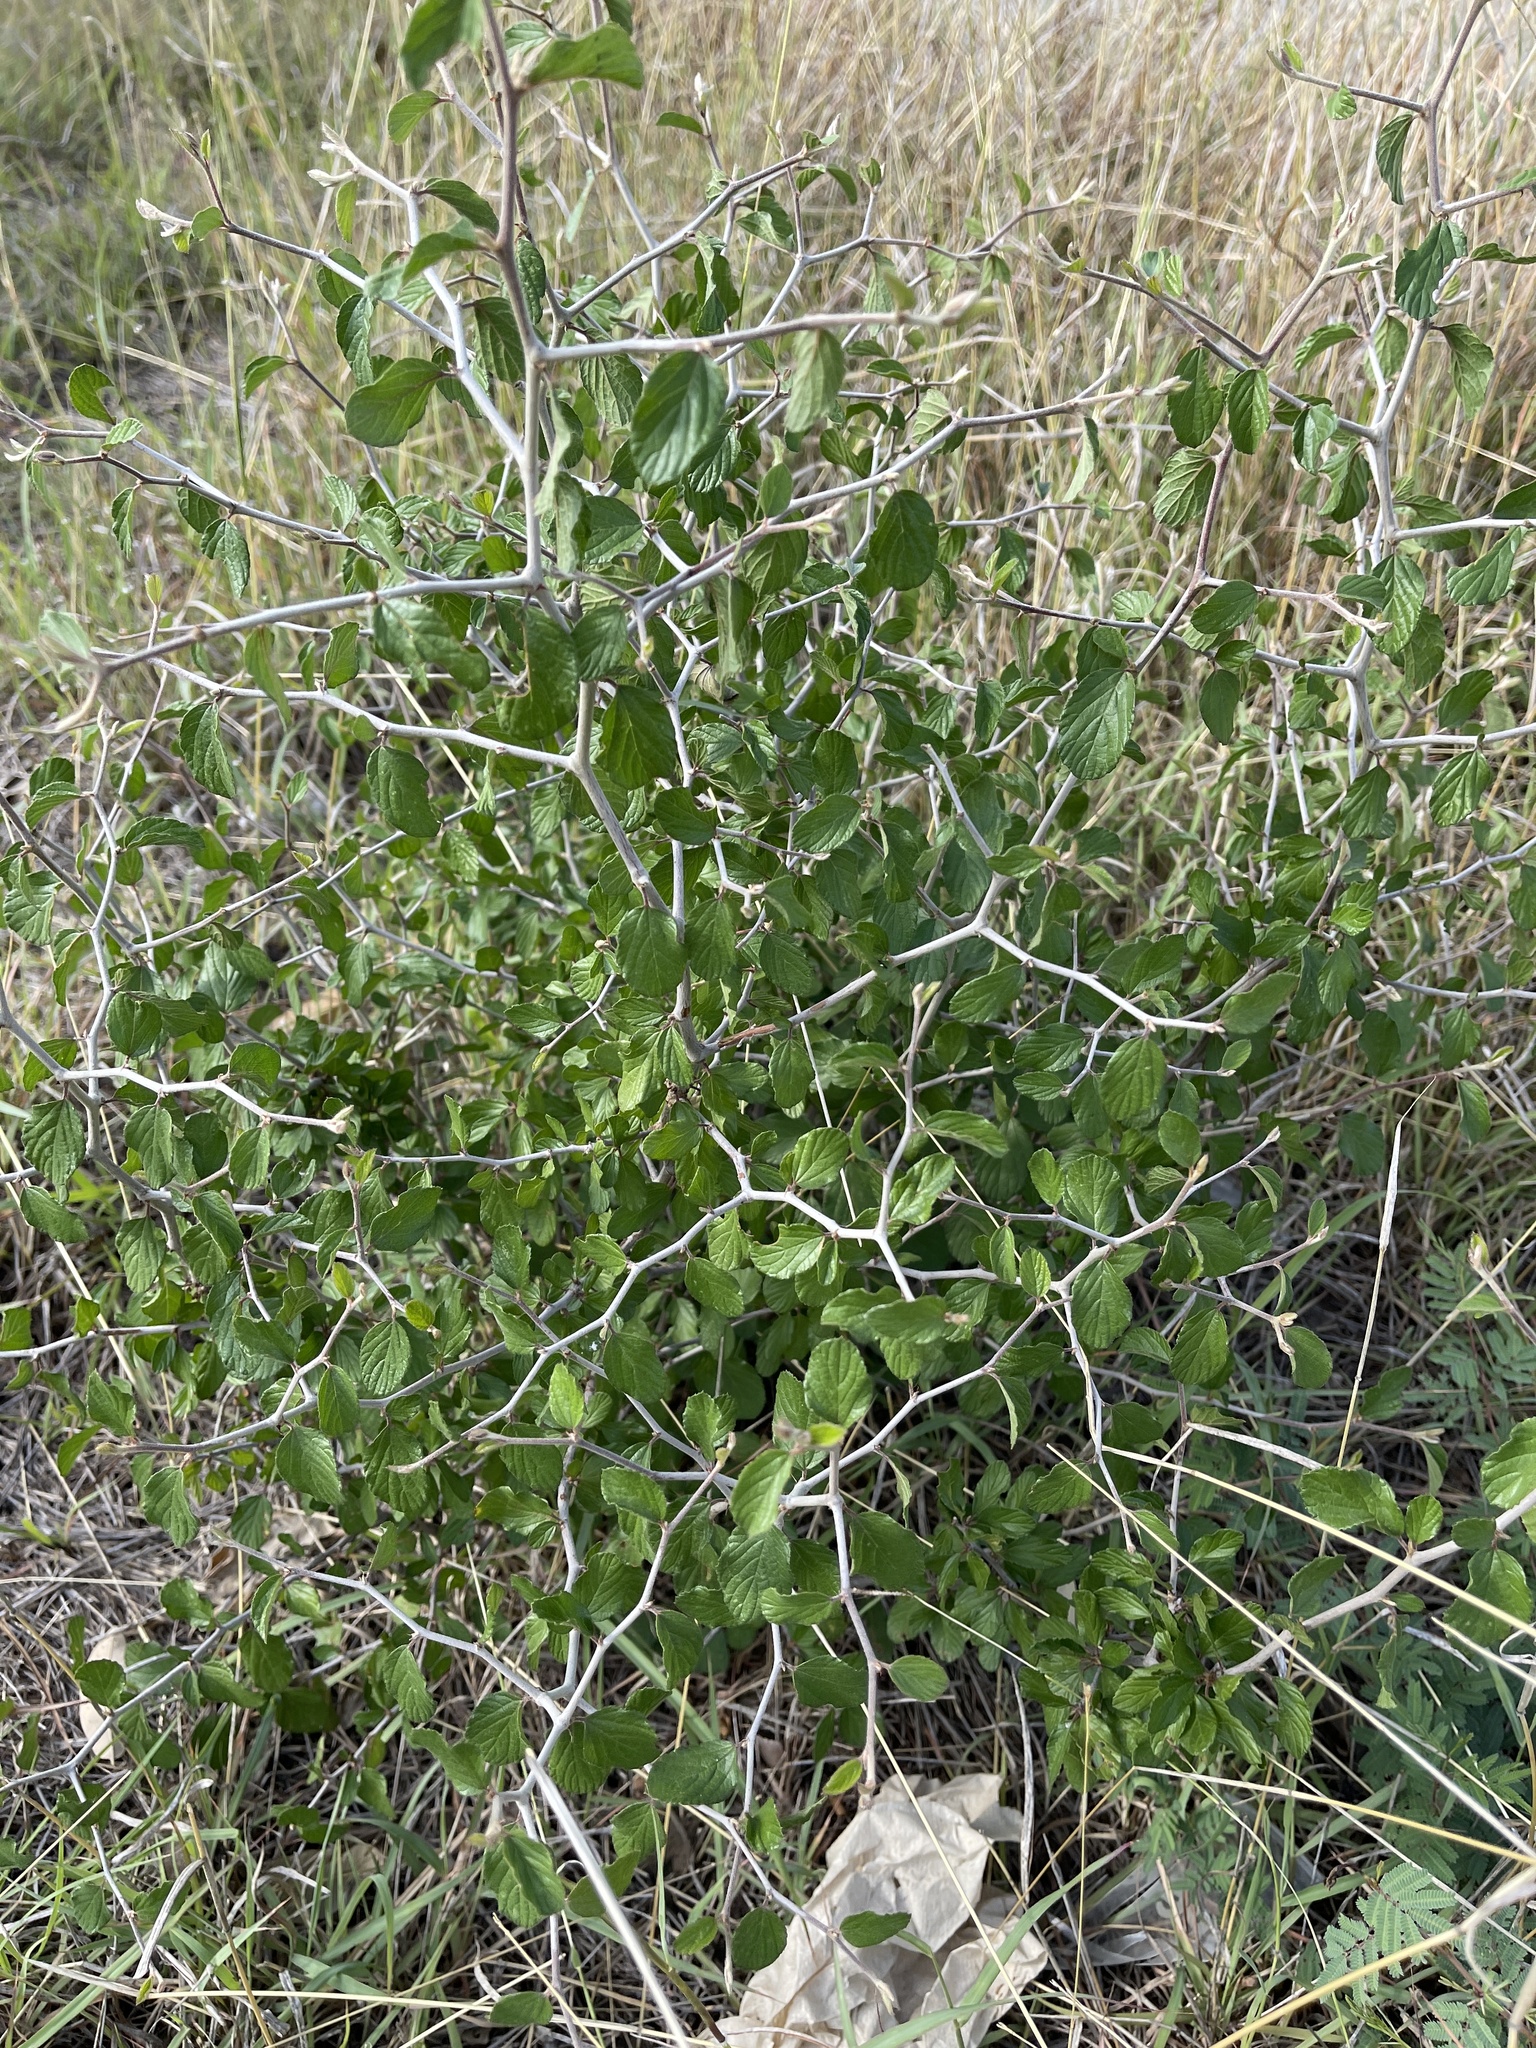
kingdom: Plantae
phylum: Tracheophyta
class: Magnoliopsida
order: Rosales
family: Rhamnaceae
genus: Colubrina
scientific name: Colubrina texensis
